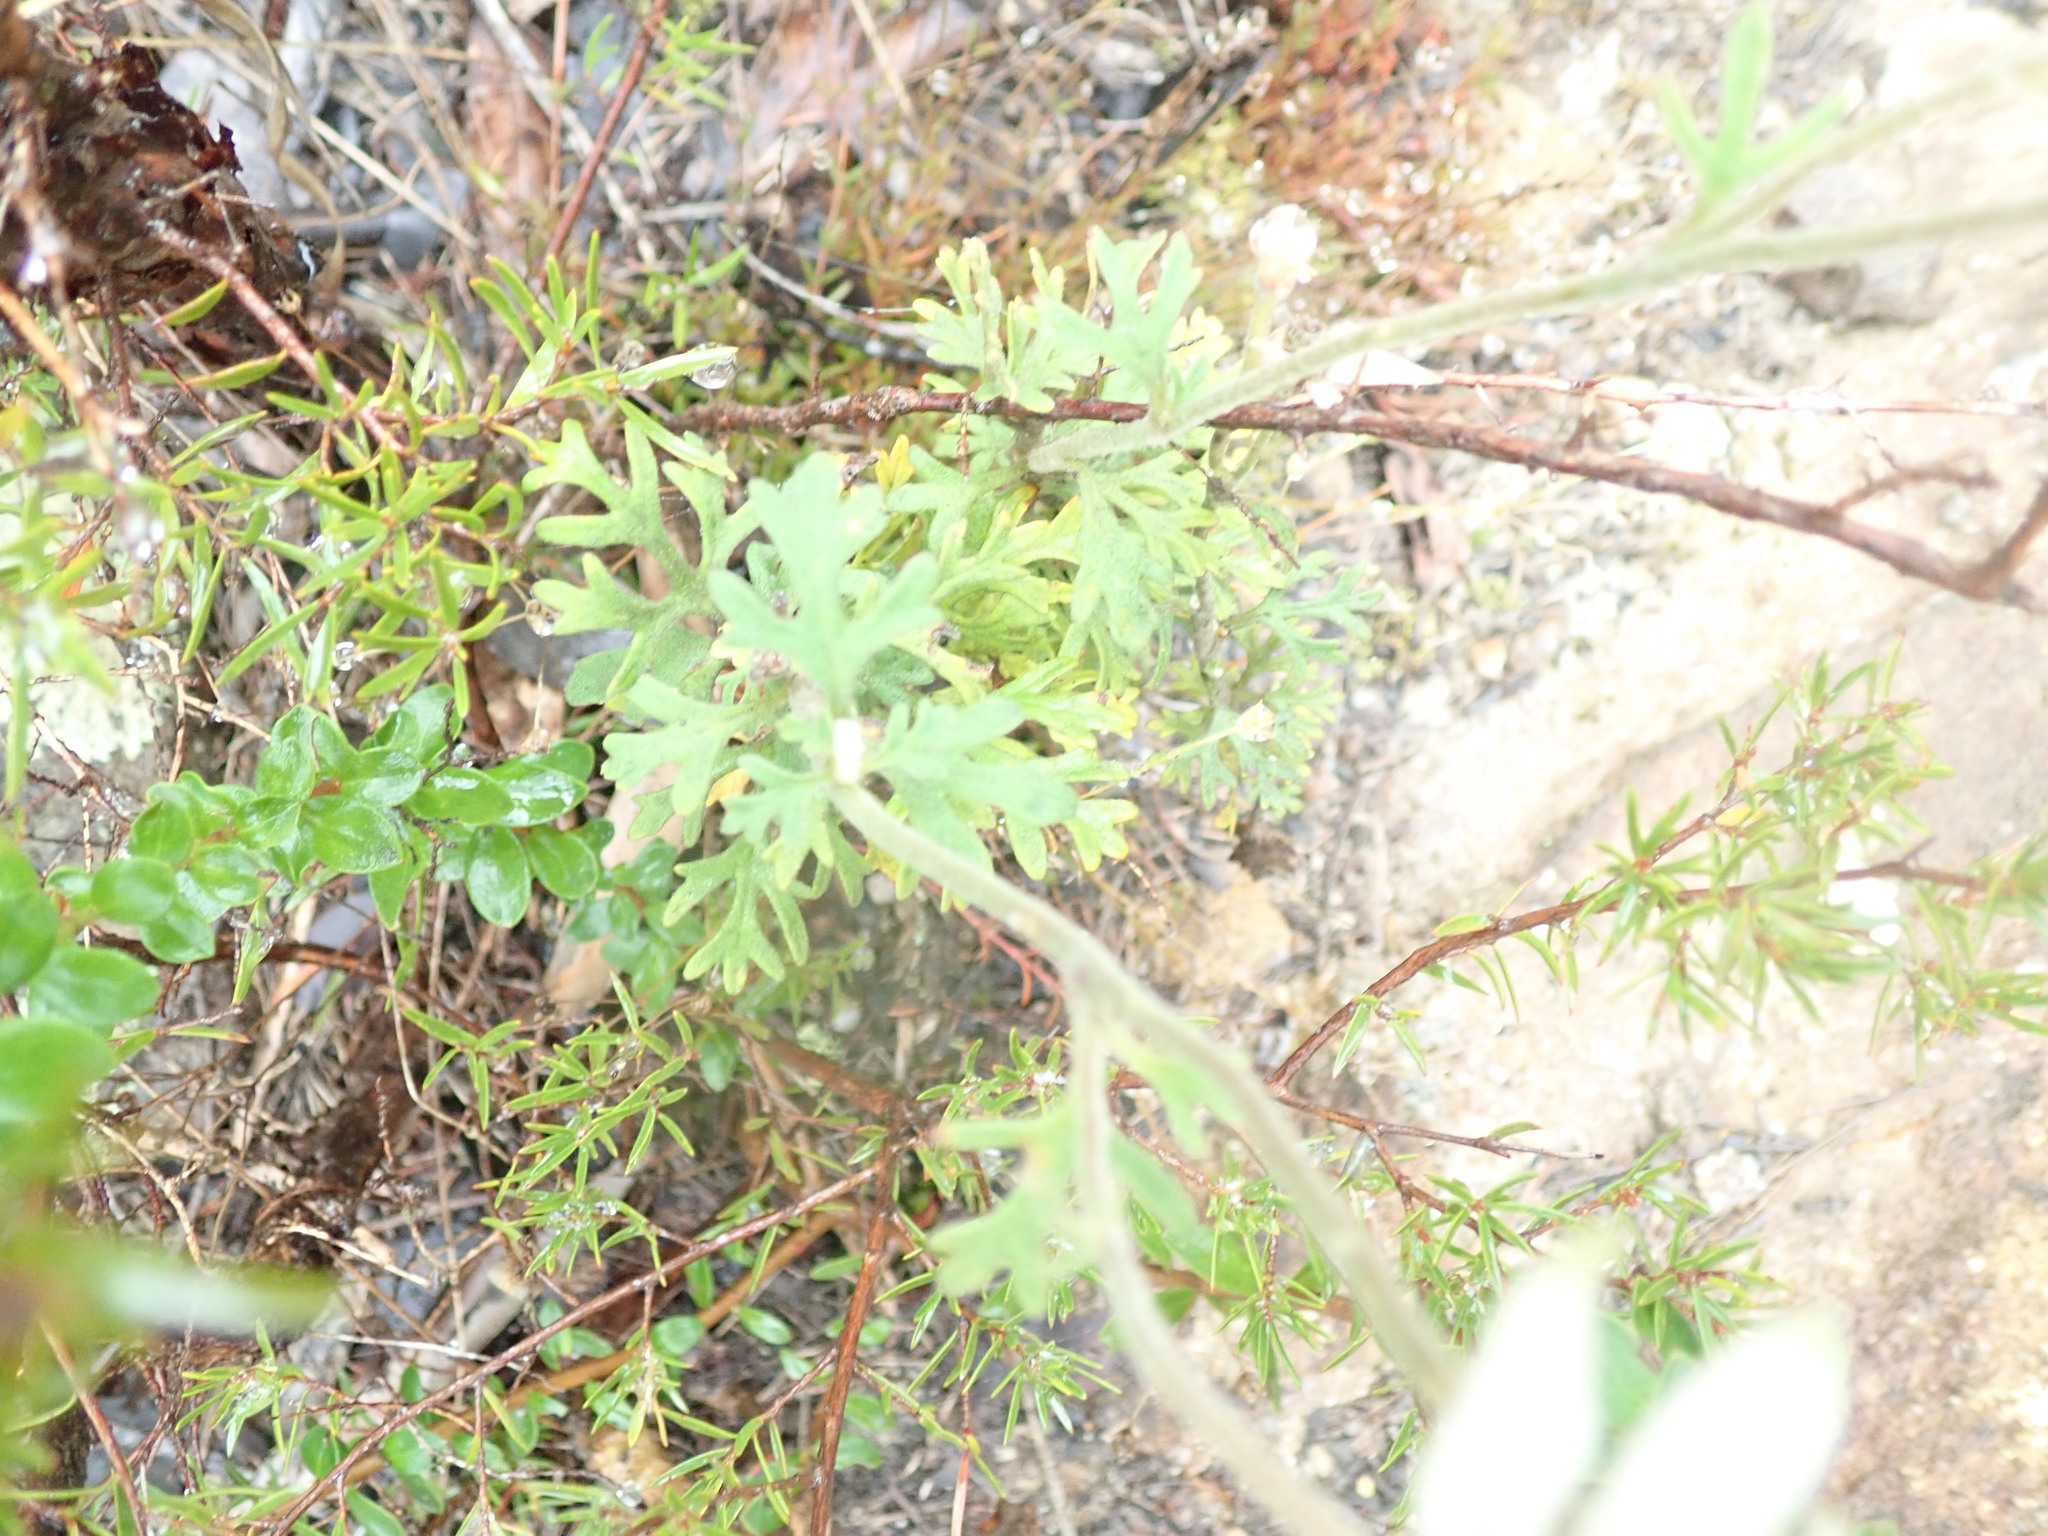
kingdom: Plantae
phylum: Tracheophyta
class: Magnoliopsida
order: Apiales
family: Apiaceae
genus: Actinotus
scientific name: Actinotus helianthi
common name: Flannel-flower
